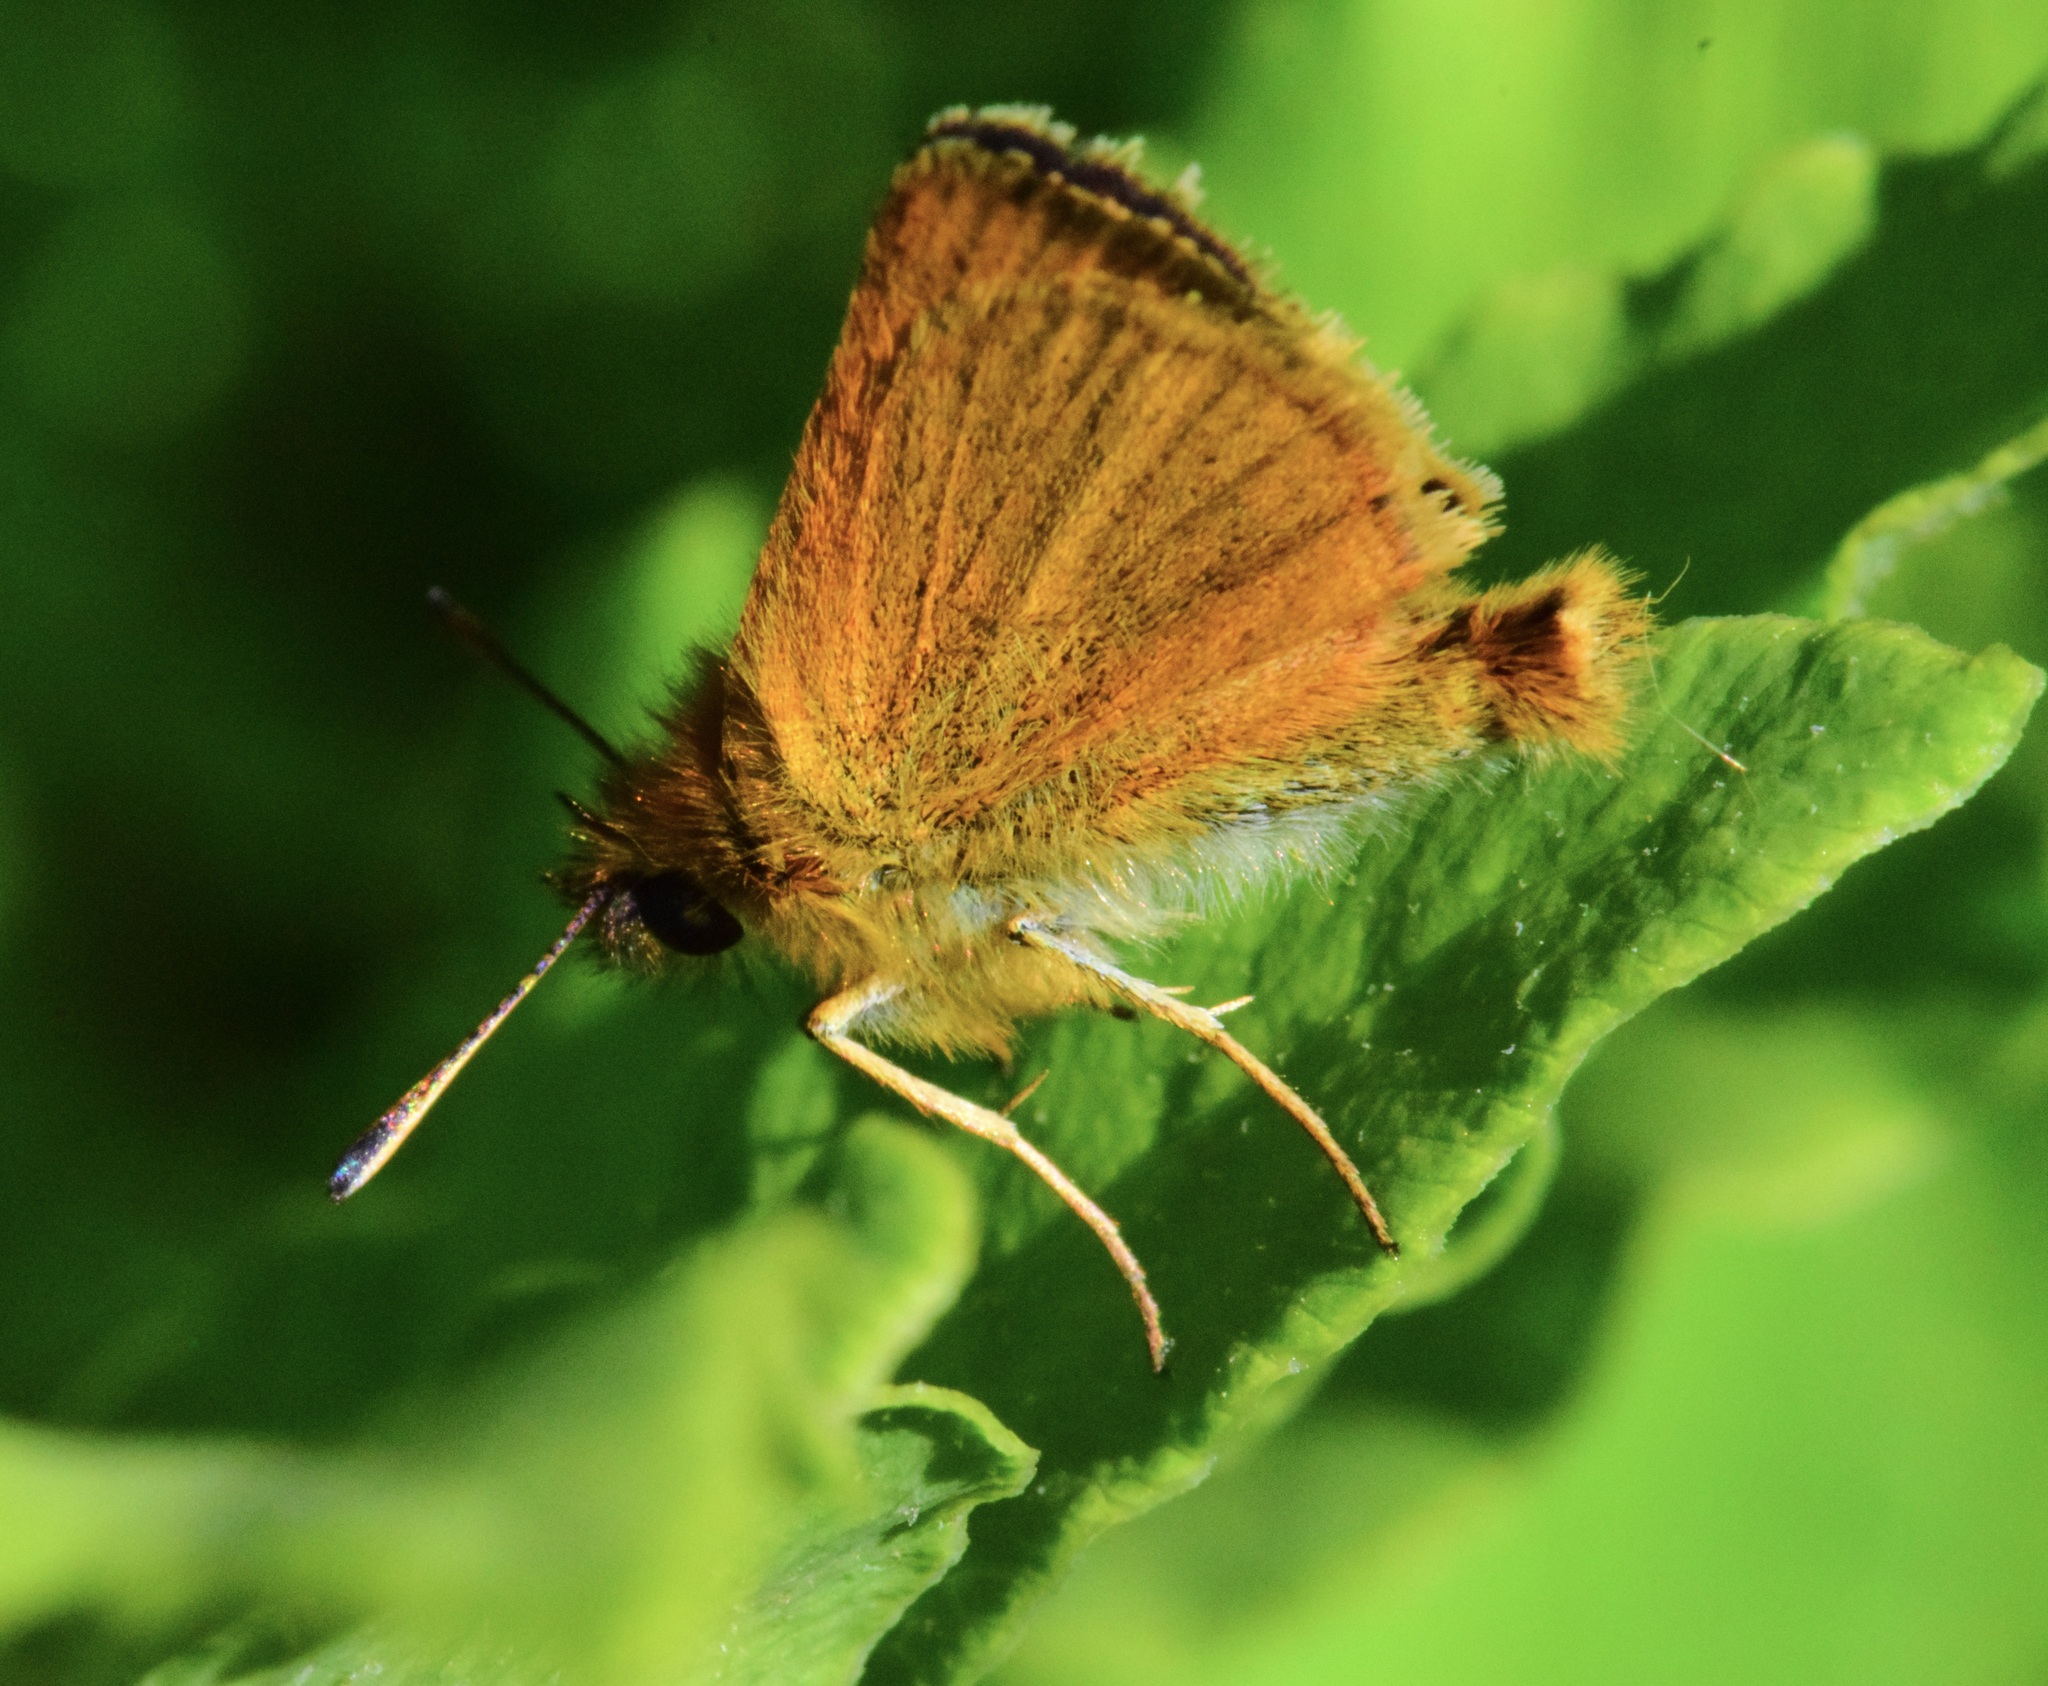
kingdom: Animalia
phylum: Arthropoda
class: Insecta
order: Lepidoptera
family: Hesperiidae
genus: Thymelicus
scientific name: Thymelicus lineola
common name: Essex skipper
